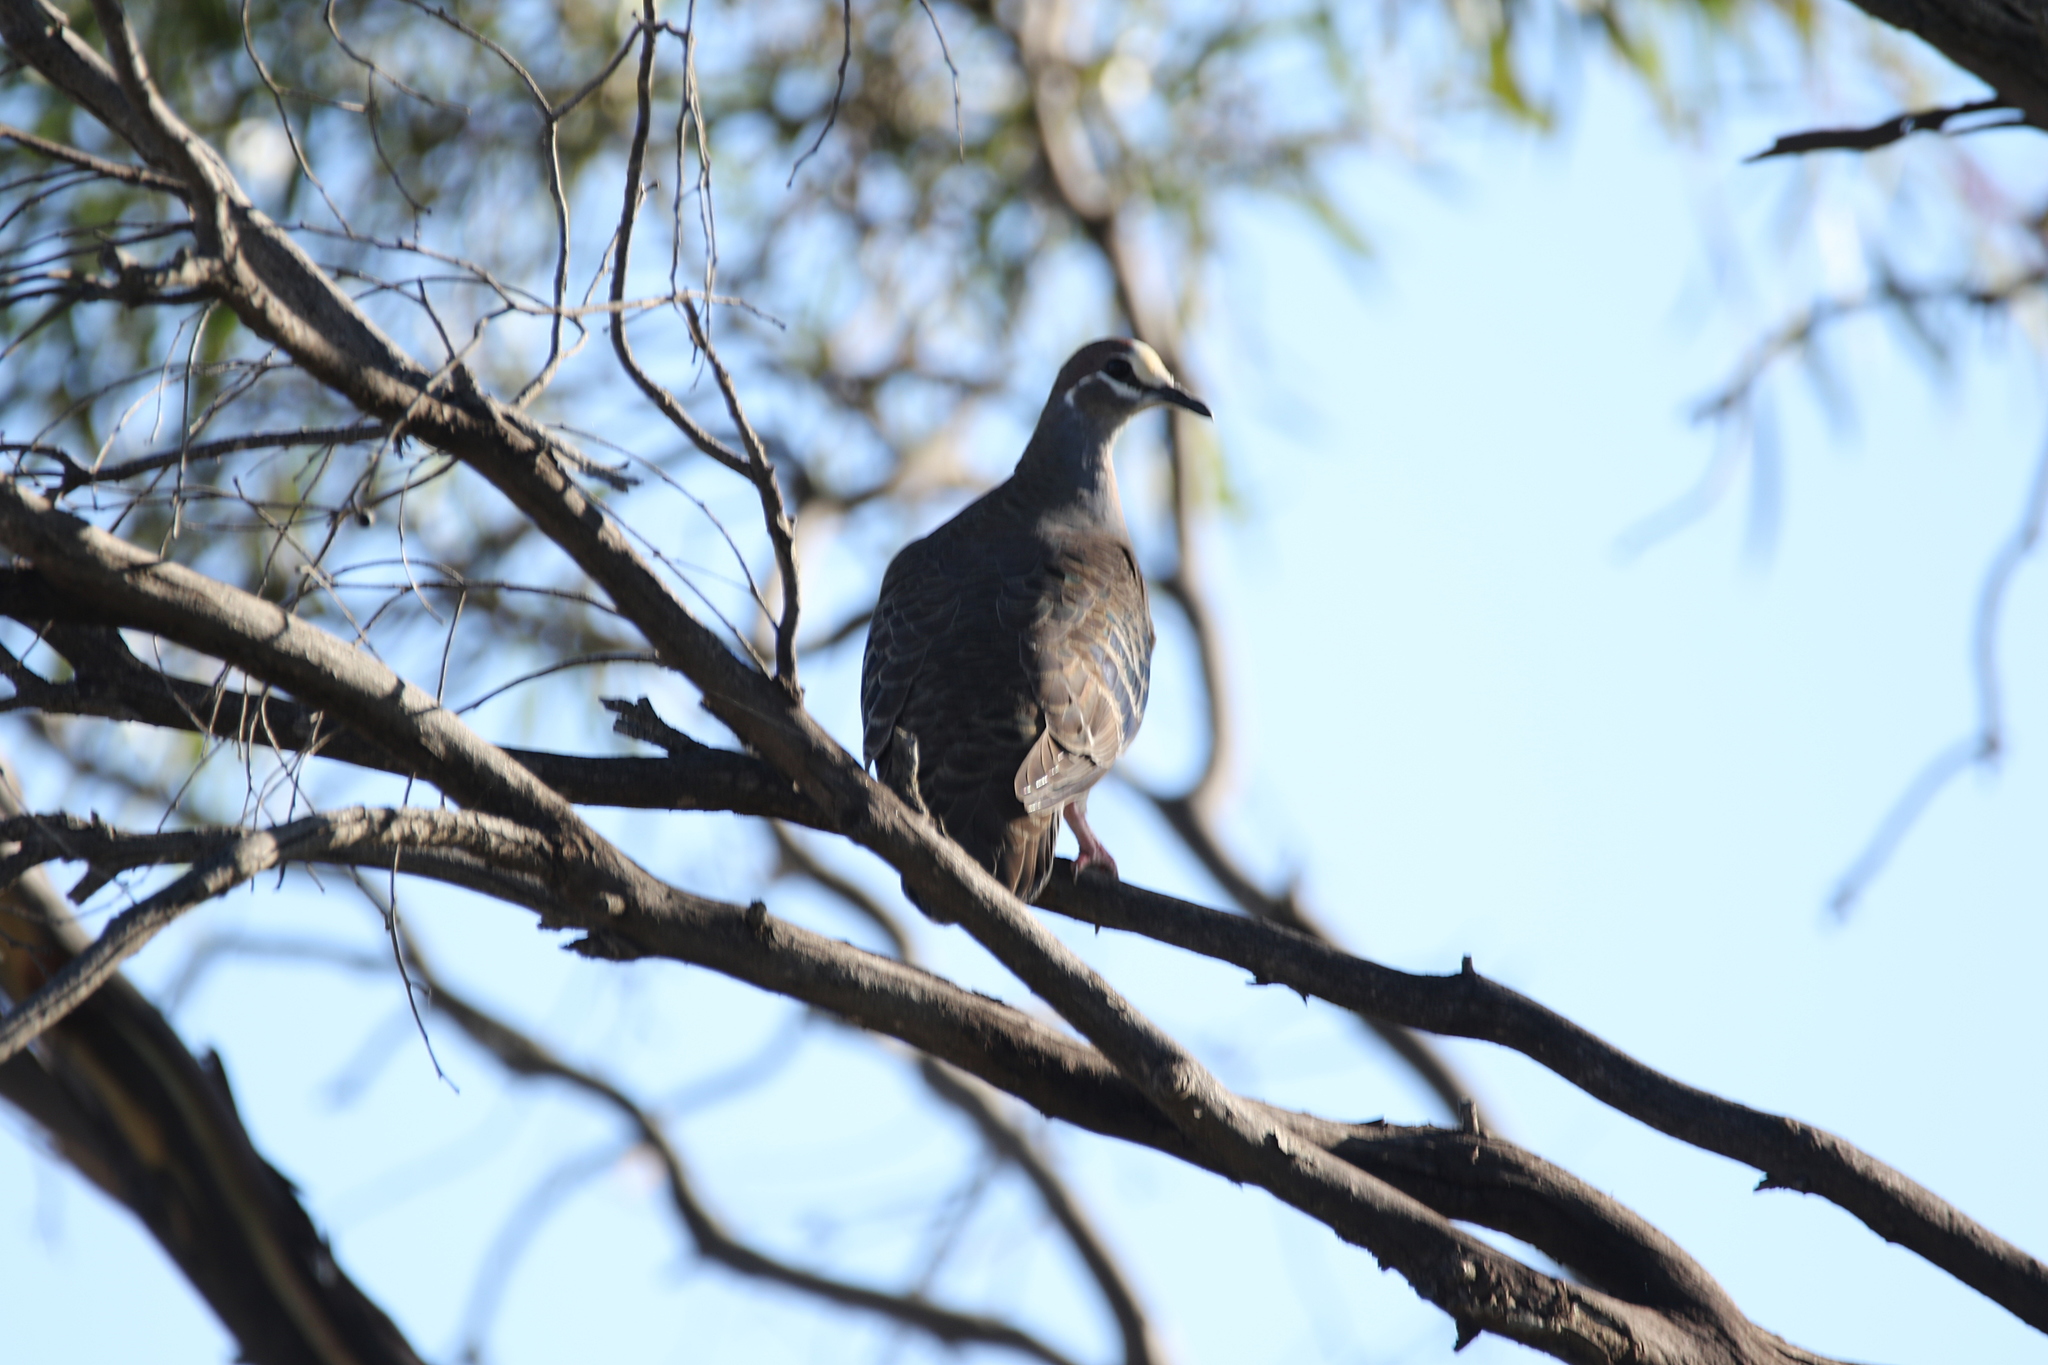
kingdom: Animalia
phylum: Chordata
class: Aves
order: Columbiformes
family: Columbidae
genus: Phaps
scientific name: Phaps chalcoptera
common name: Common bronzewing
